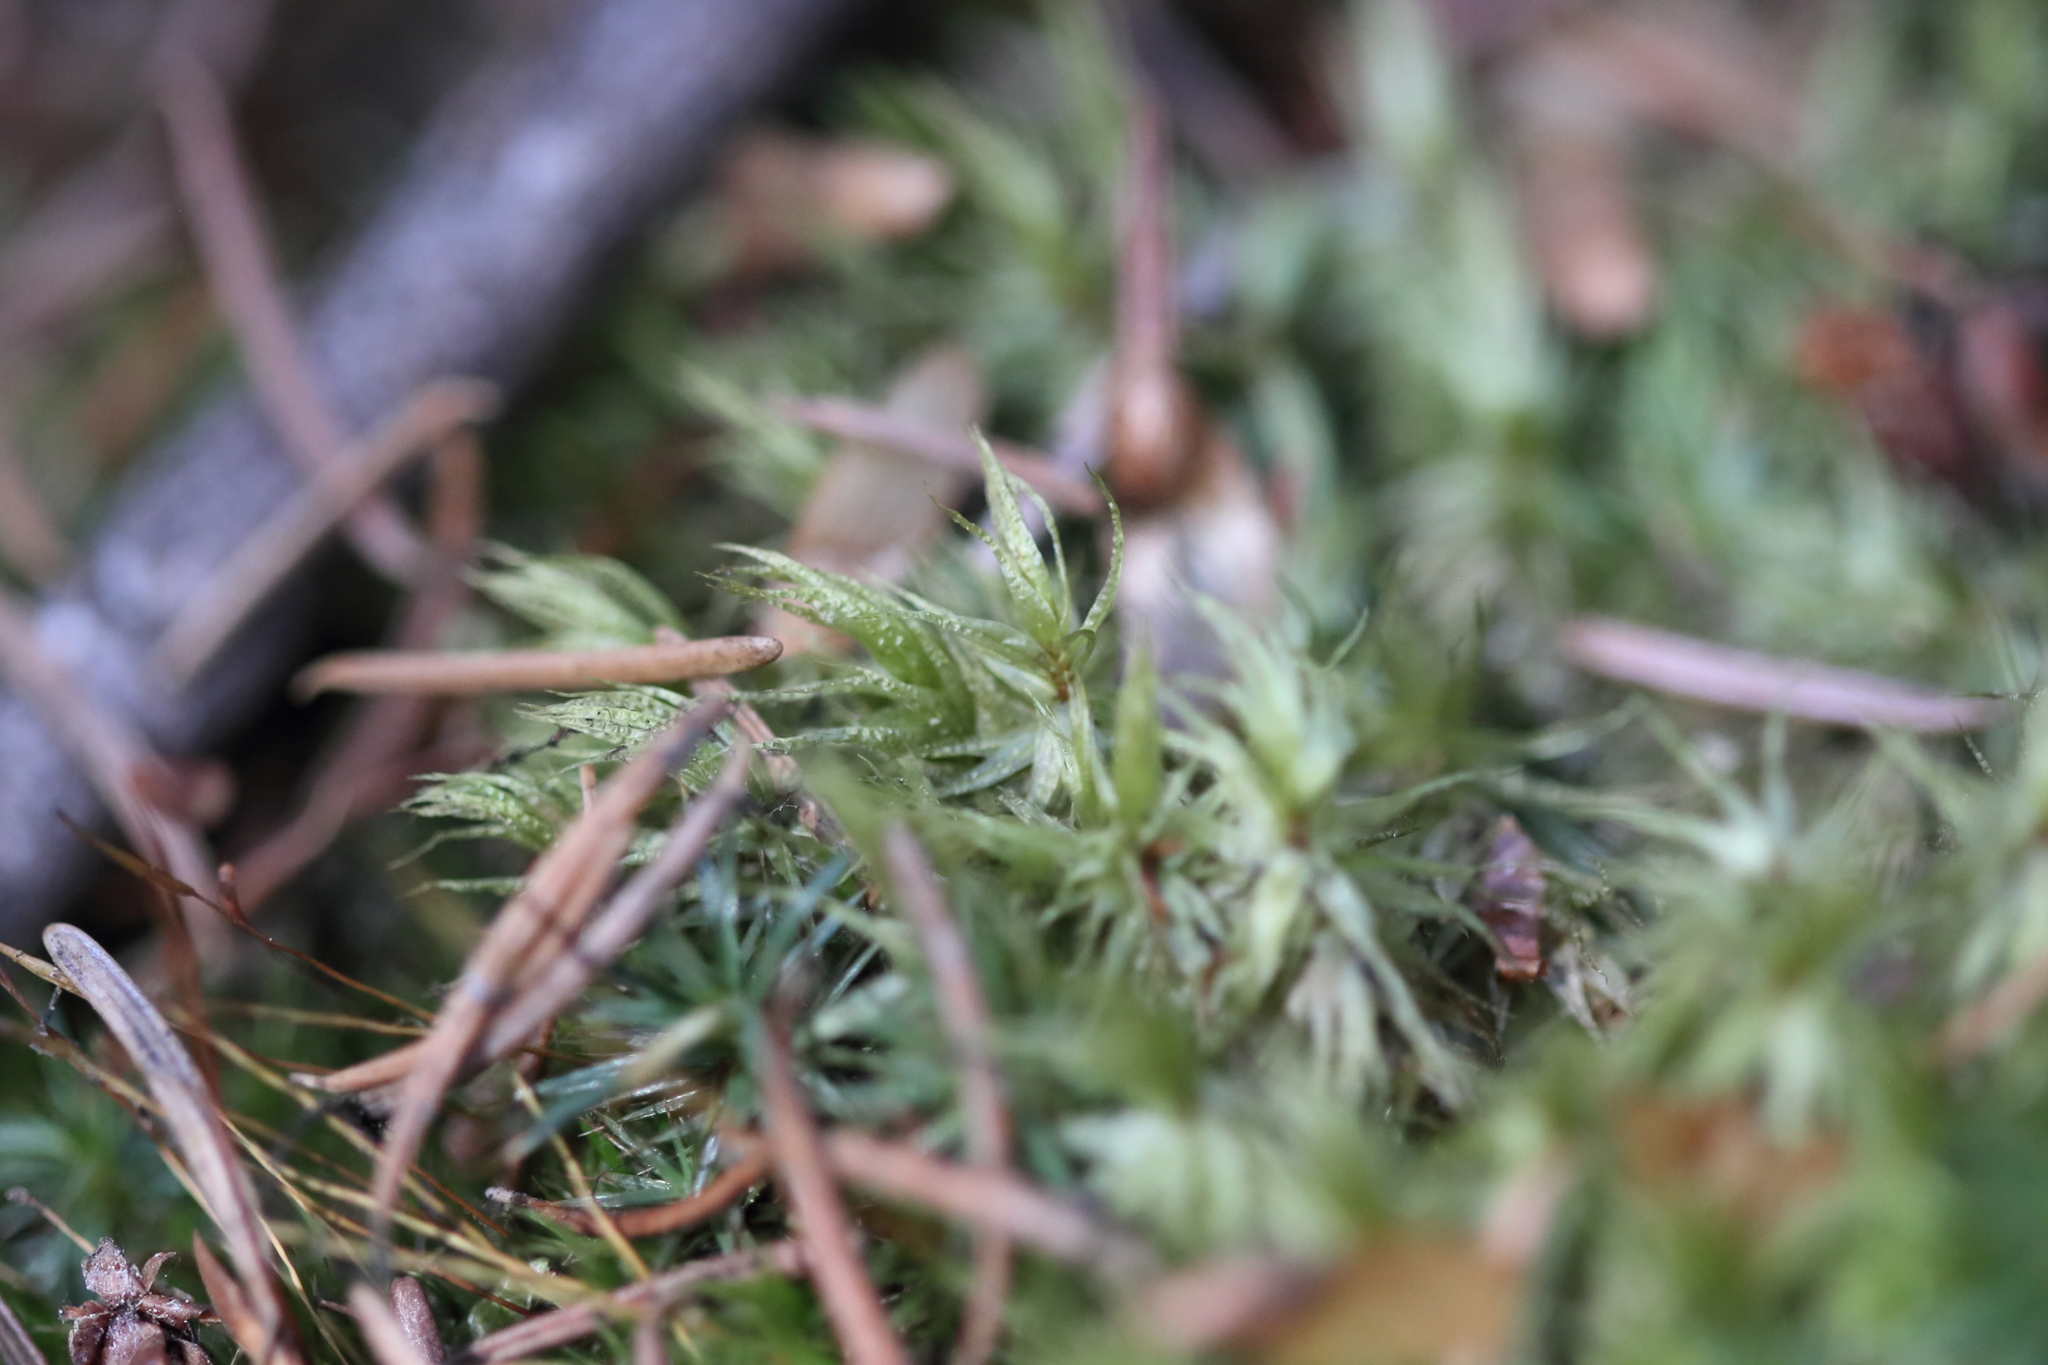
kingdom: Plantae
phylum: Bryophyta
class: Bryopsida
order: Dicranales
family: Dicranaceae
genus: Dicranum
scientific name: Dicranum polysetum
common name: Rugose fork-moss
